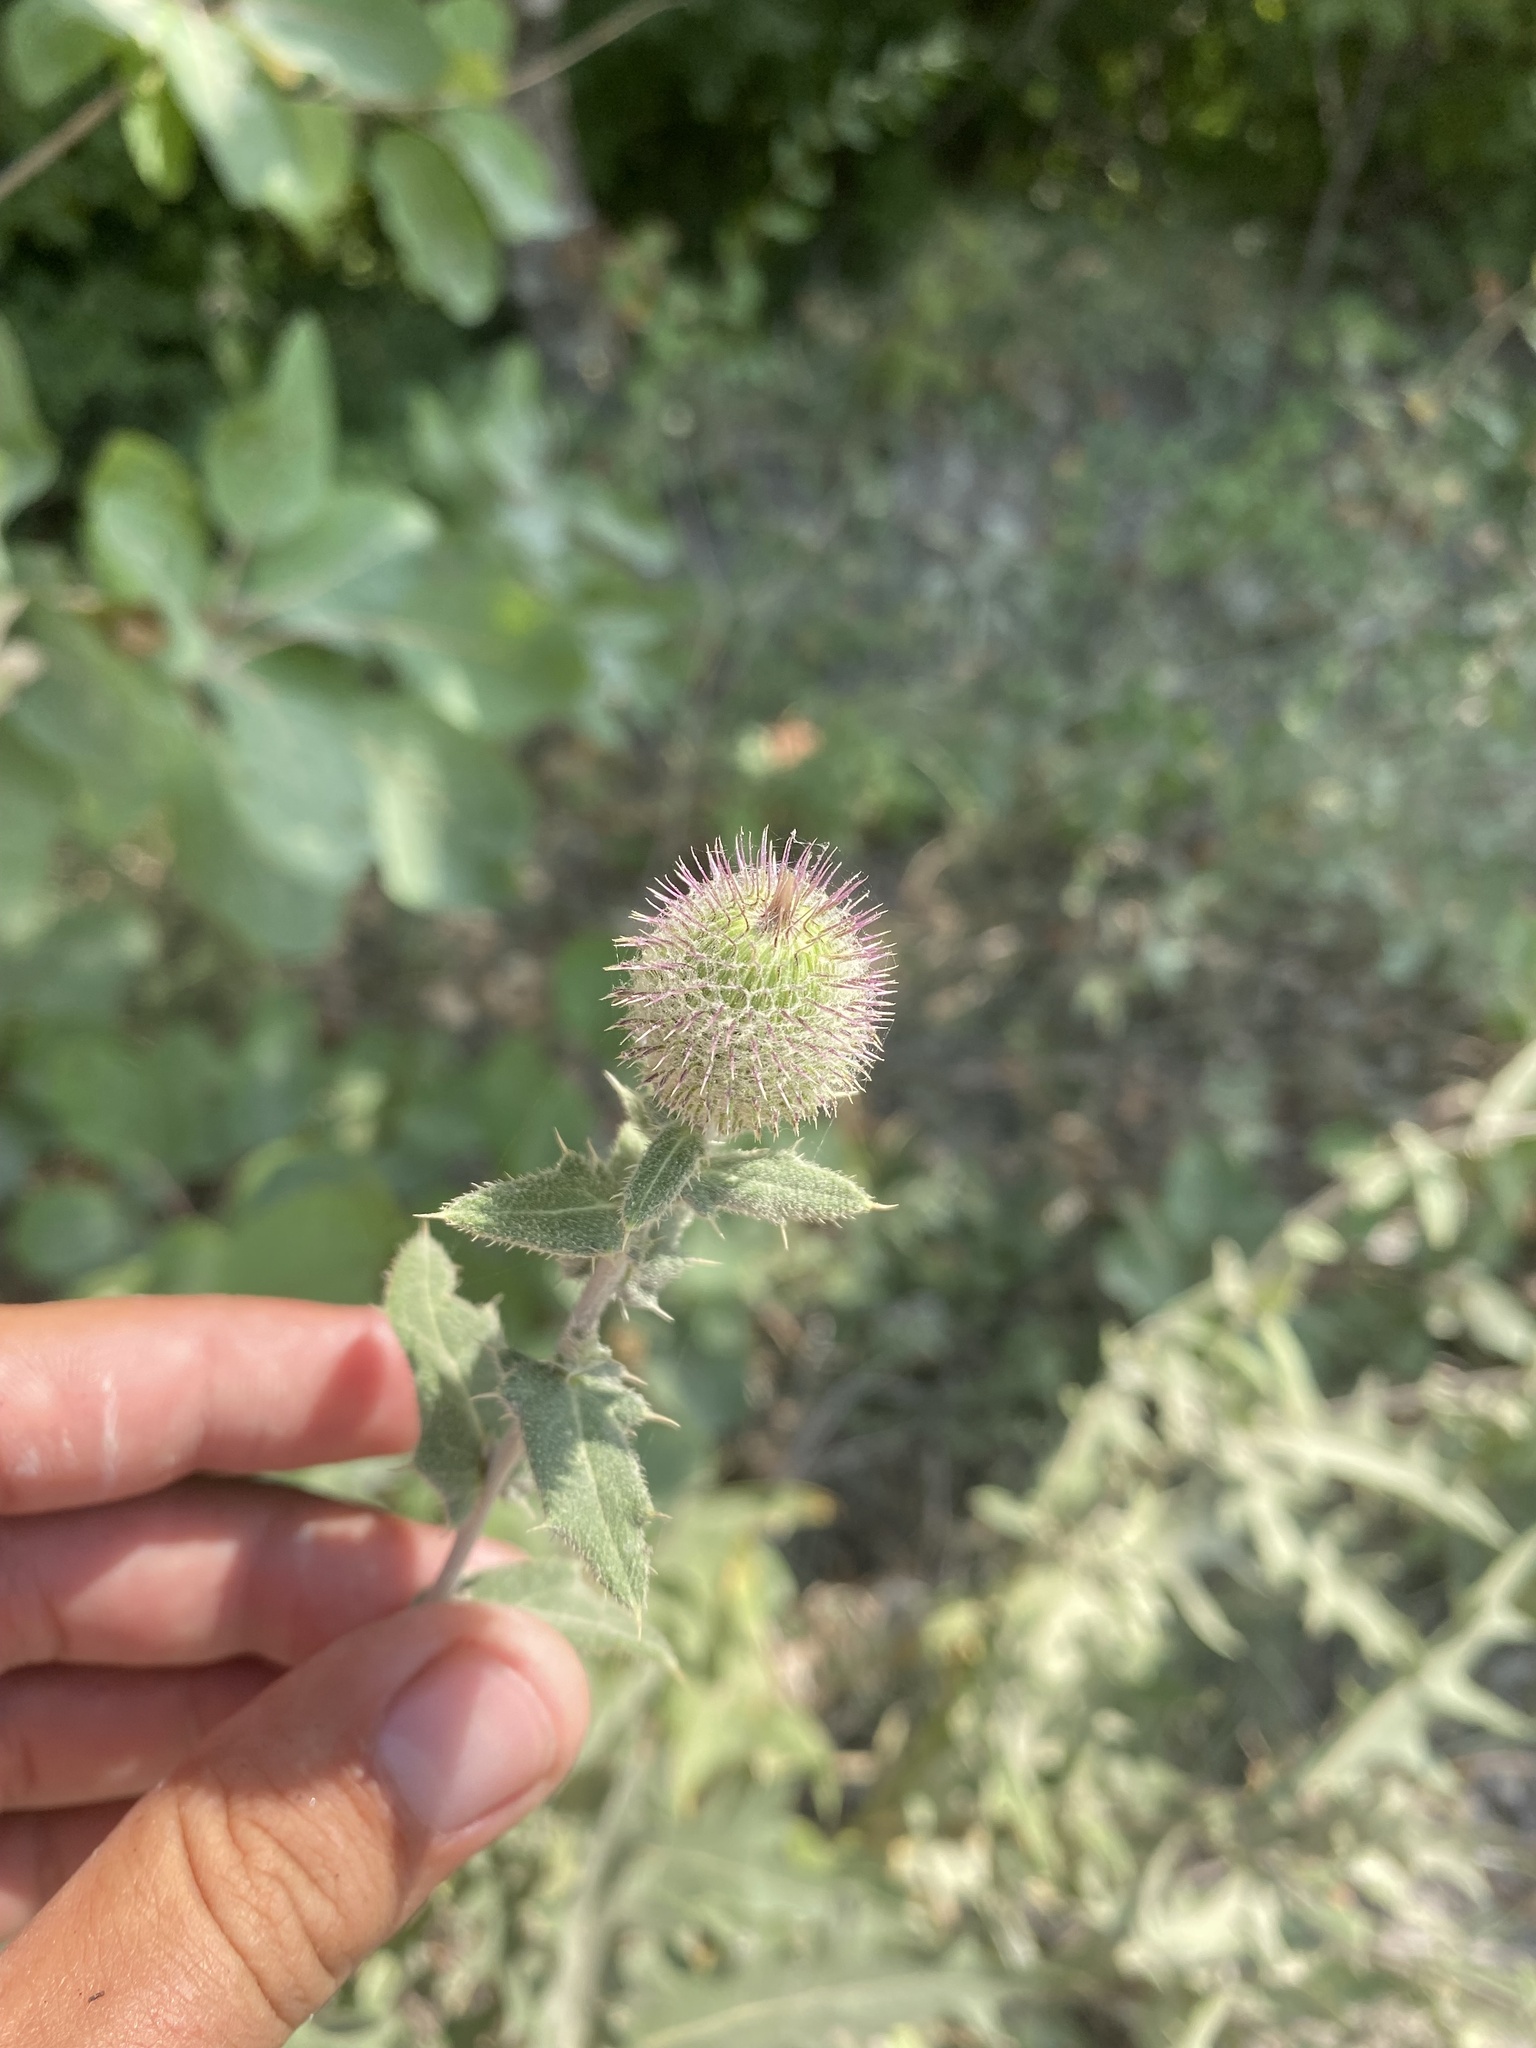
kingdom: Plantae
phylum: Tracheophyta
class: Magnoliopsida
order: Asterales
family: Asteraceae
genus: Lophiolepis
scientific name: Lophiolepis euxina
